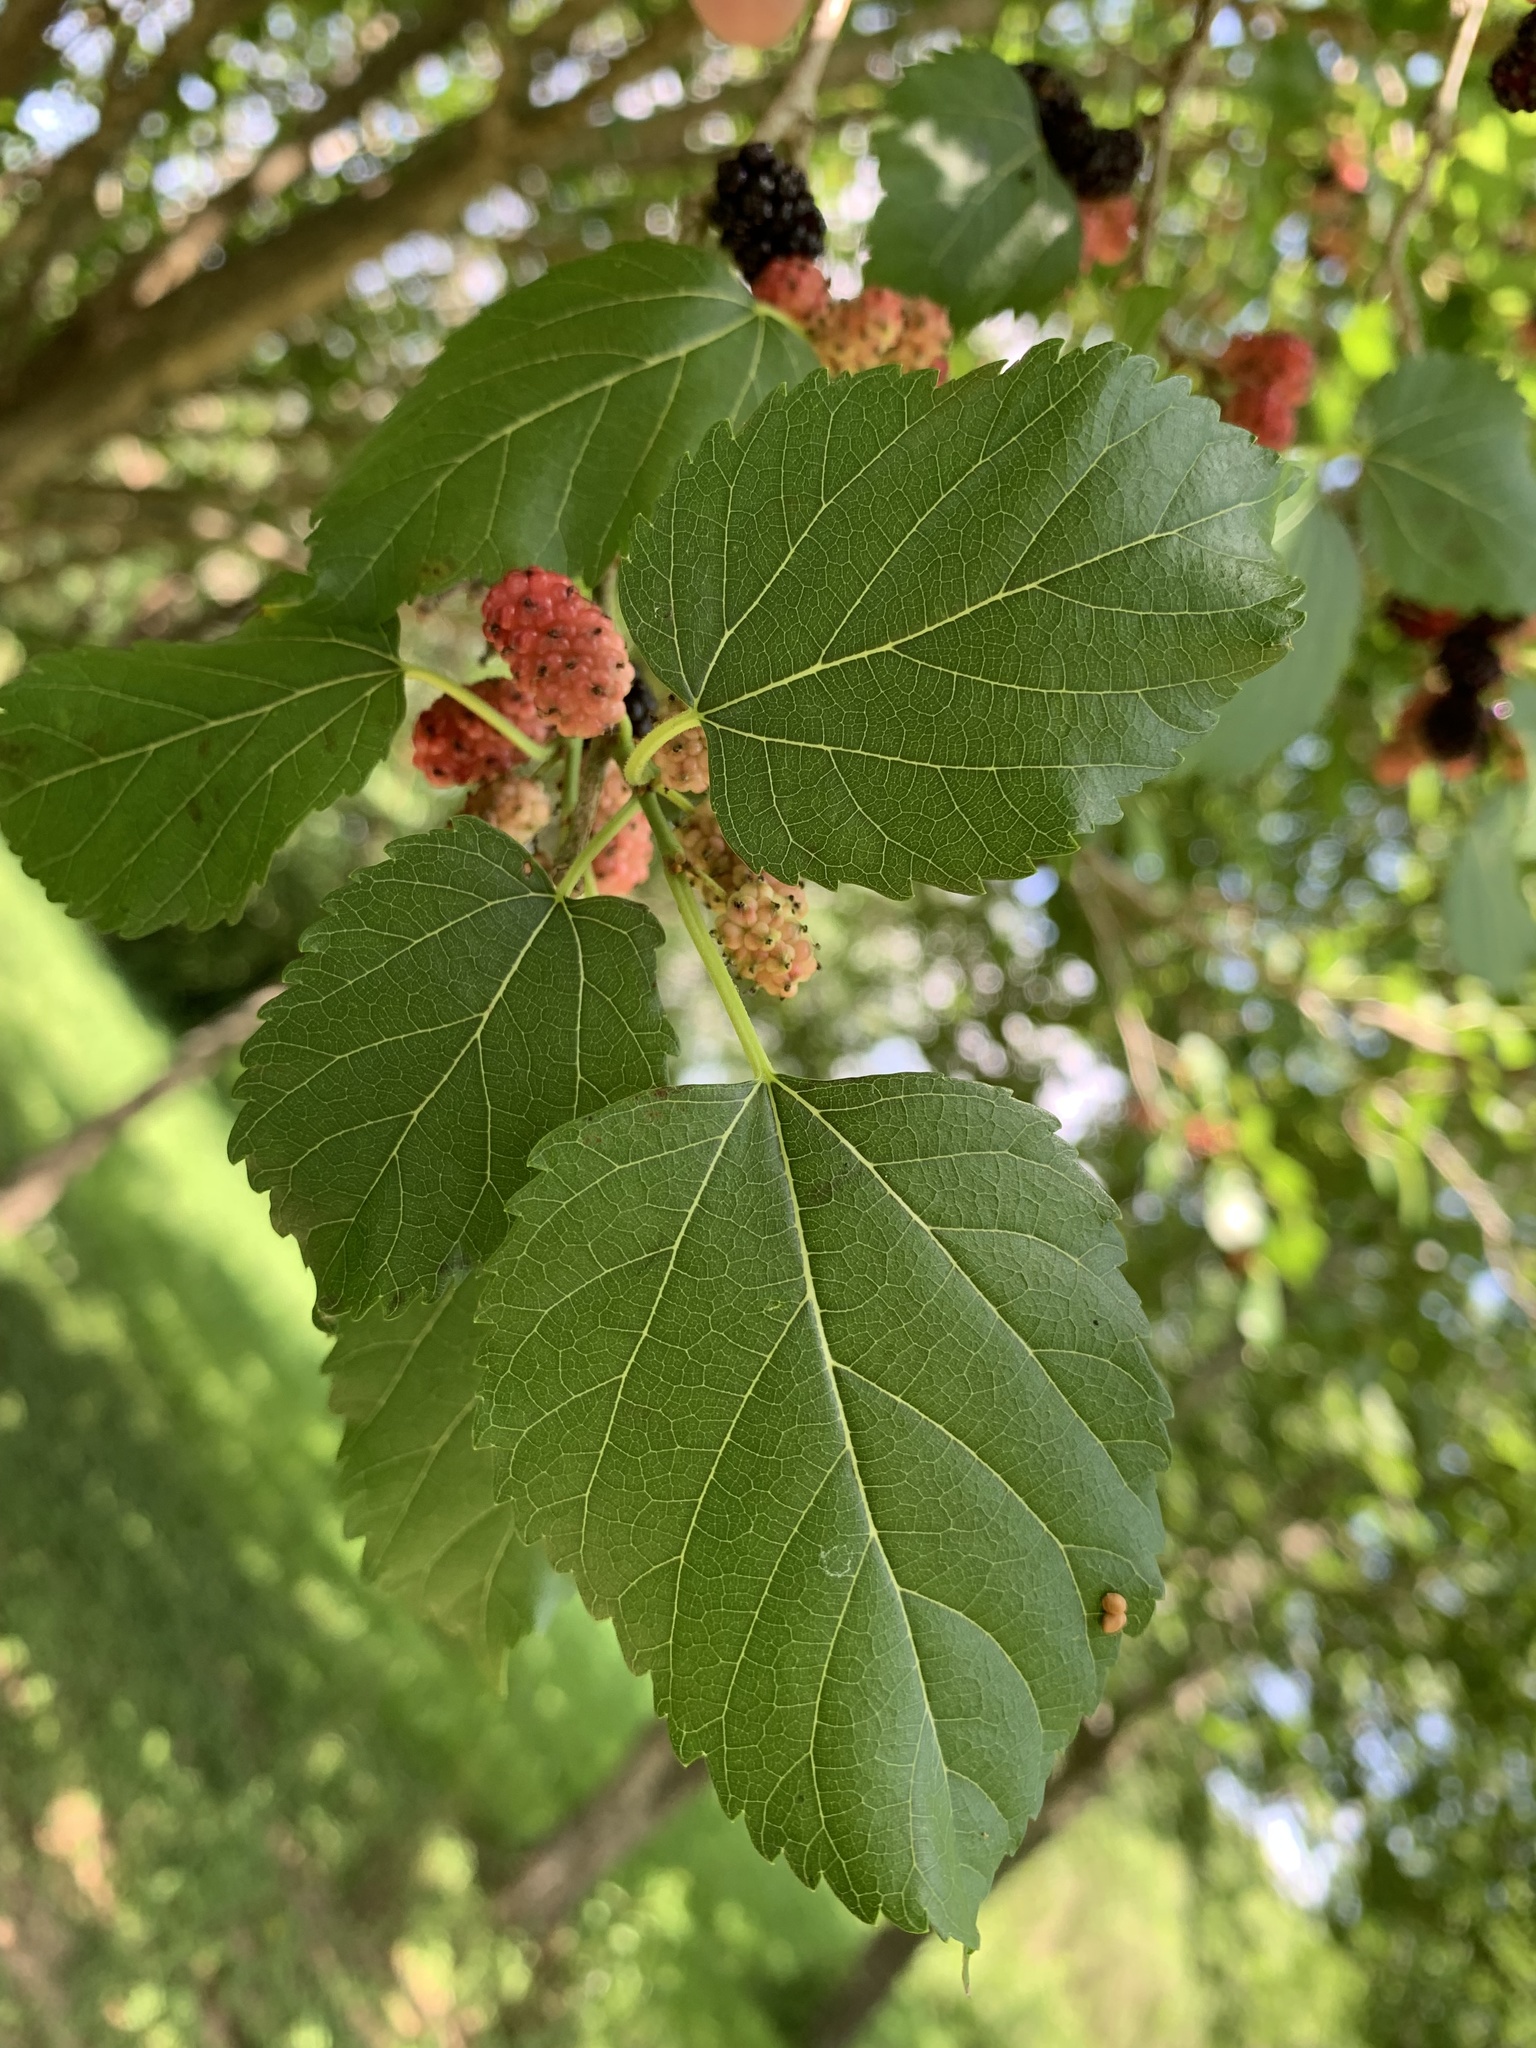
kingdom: Plantae
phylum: Tracheophyta
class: Magnoliopsida
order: Rosales
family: Moraceae
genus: Morus
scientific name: Morus alba
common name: White mulberry
